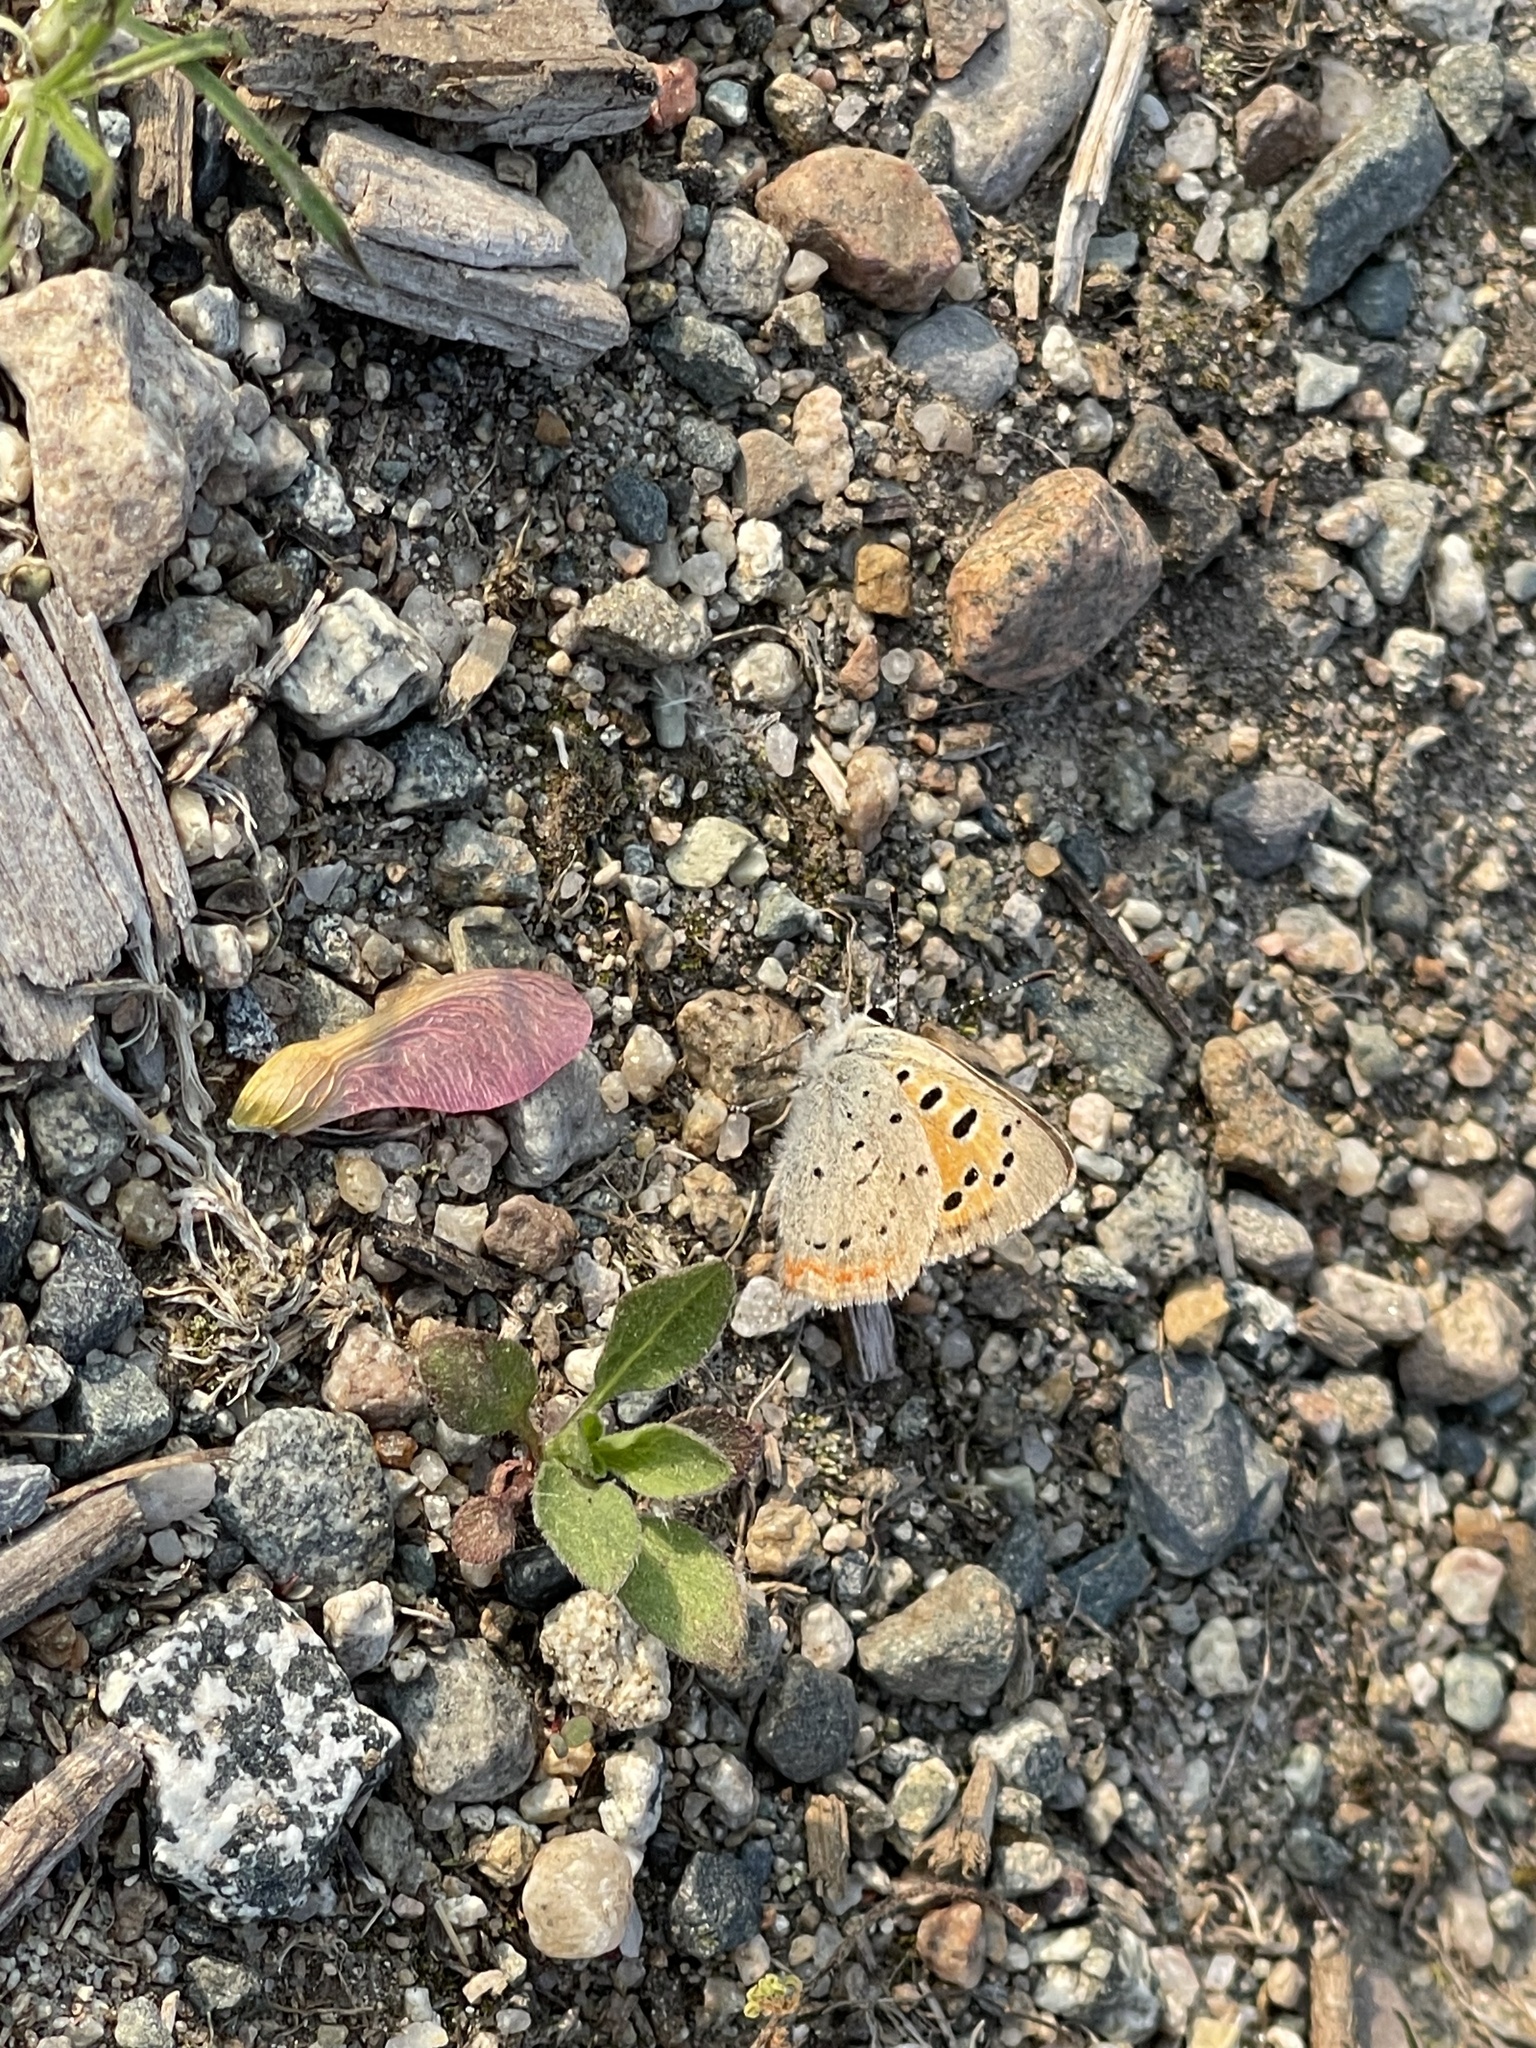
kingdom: Animalia
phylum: Arthropoda
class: Insecta
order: Lepidoptera
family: Lycaenidae
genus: Lycaena
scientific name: Lycaena hypophlaeas
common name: American copper
